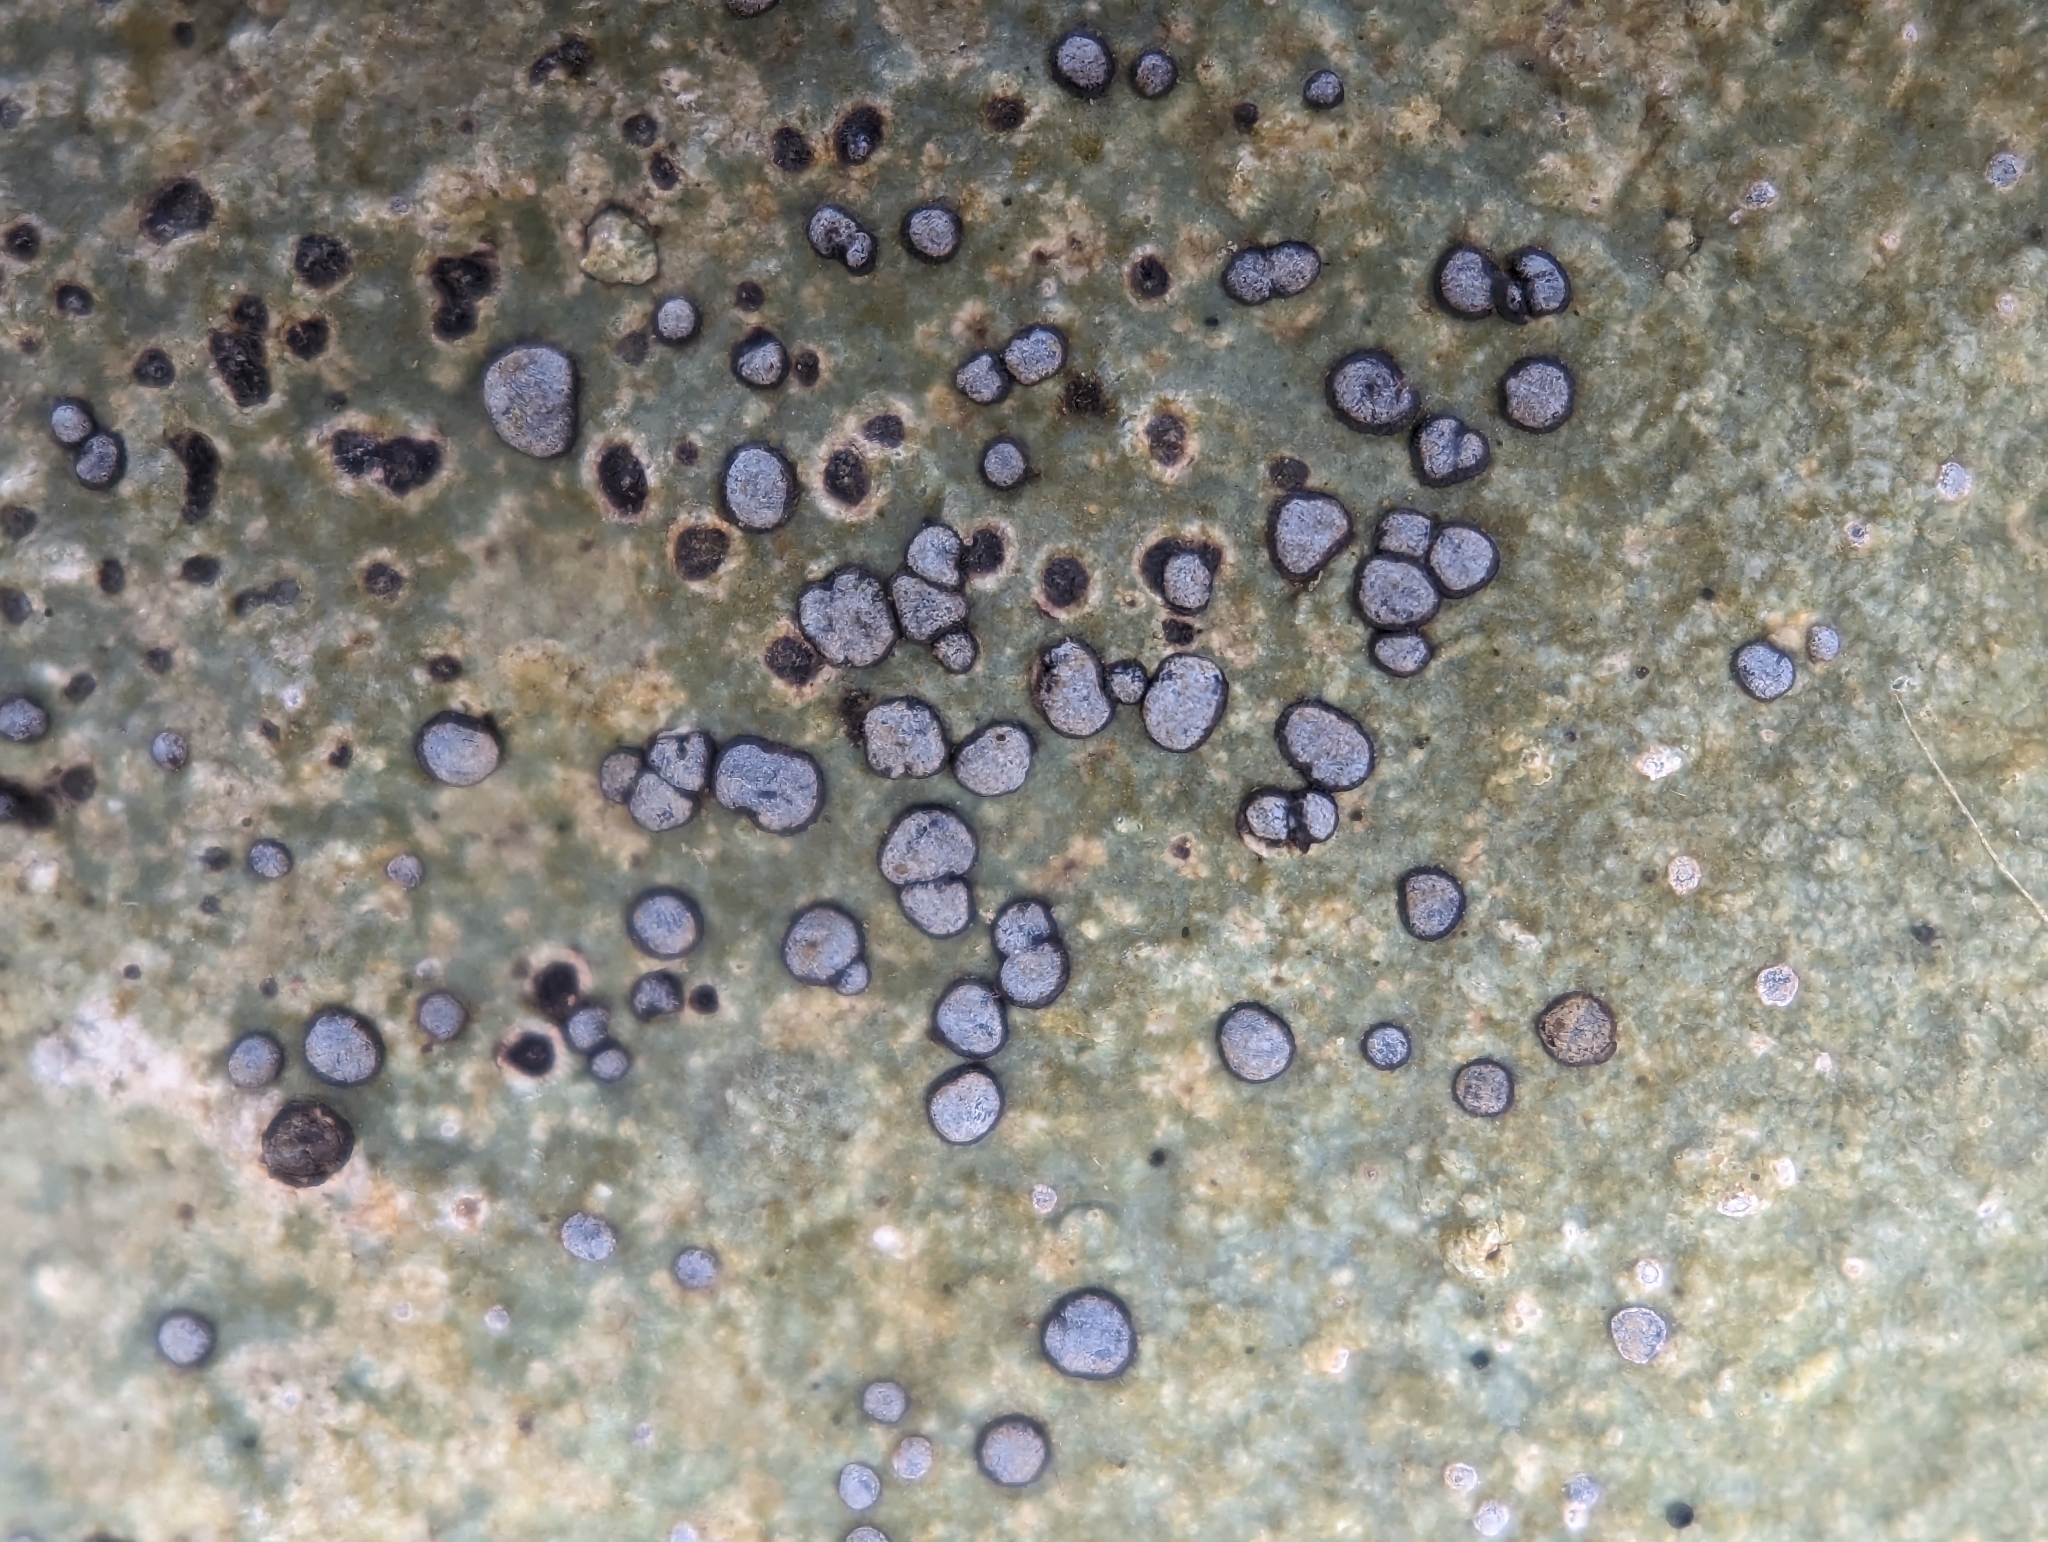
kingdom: Fungi
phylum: Ascomycota
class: Lecanoromycetes
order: Lecideales
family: Lecideaceae
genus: Porpidia
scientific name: Porpidia albocaerulescens
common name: Smokey-eyed boulder lichen
